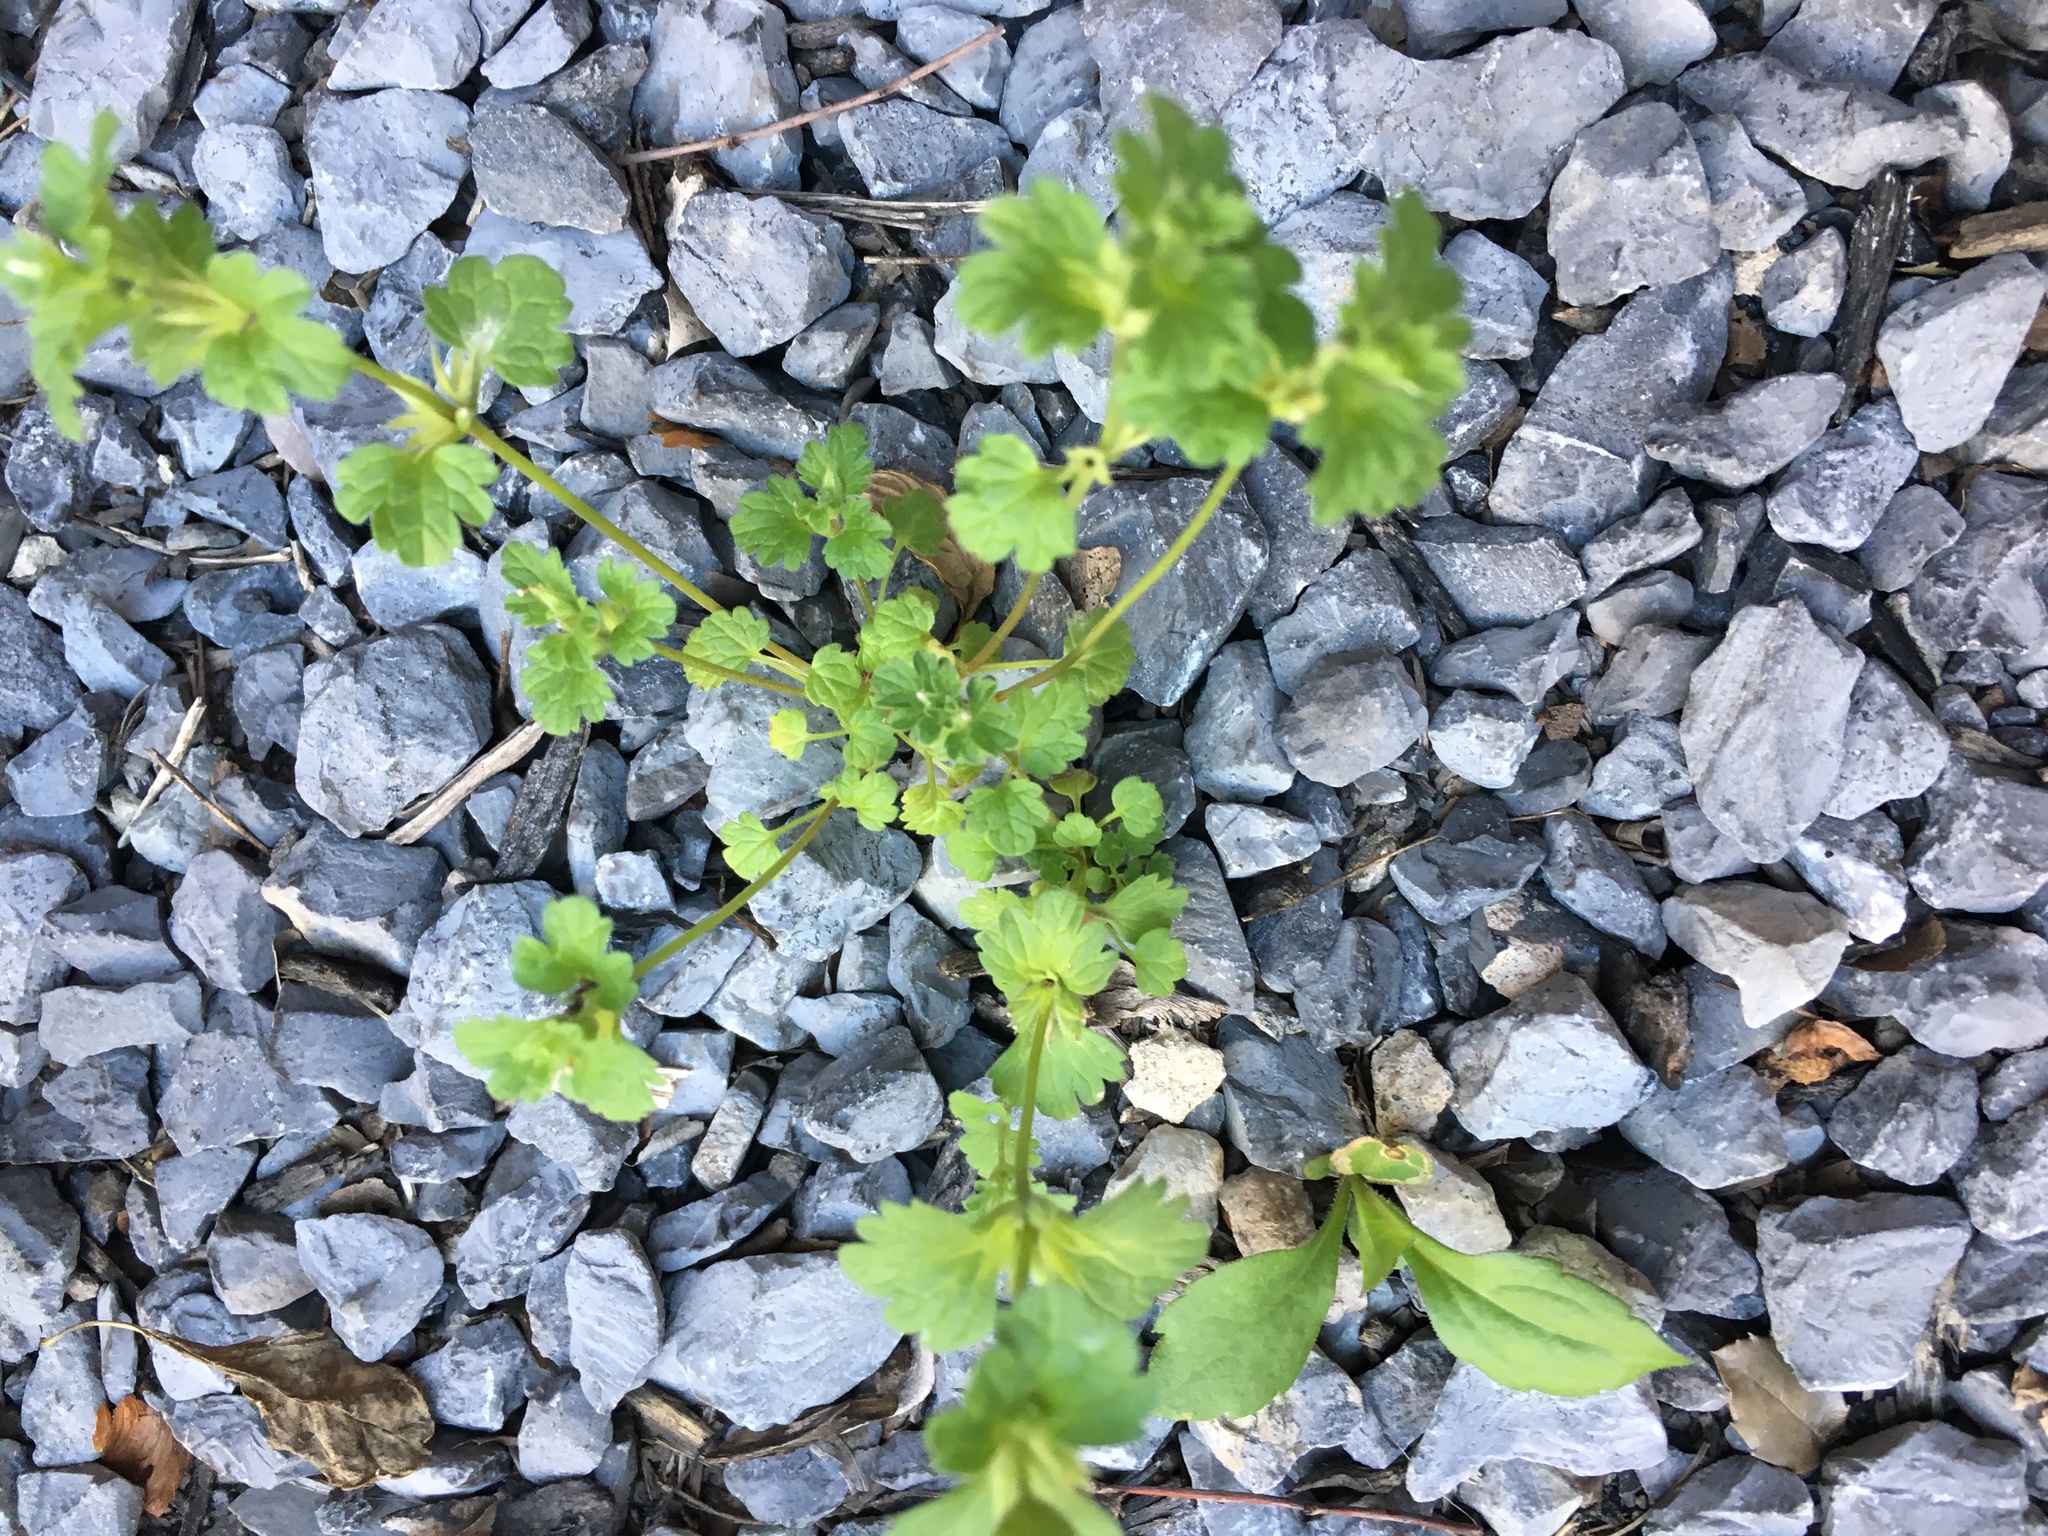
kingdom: Plantae
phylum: Tracheophyta
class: Magnoliopsida
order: Lamiales
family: Lamiaceae
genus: Lamium
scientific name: Lamium amplexicaule
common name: Henbit dead-nettle
